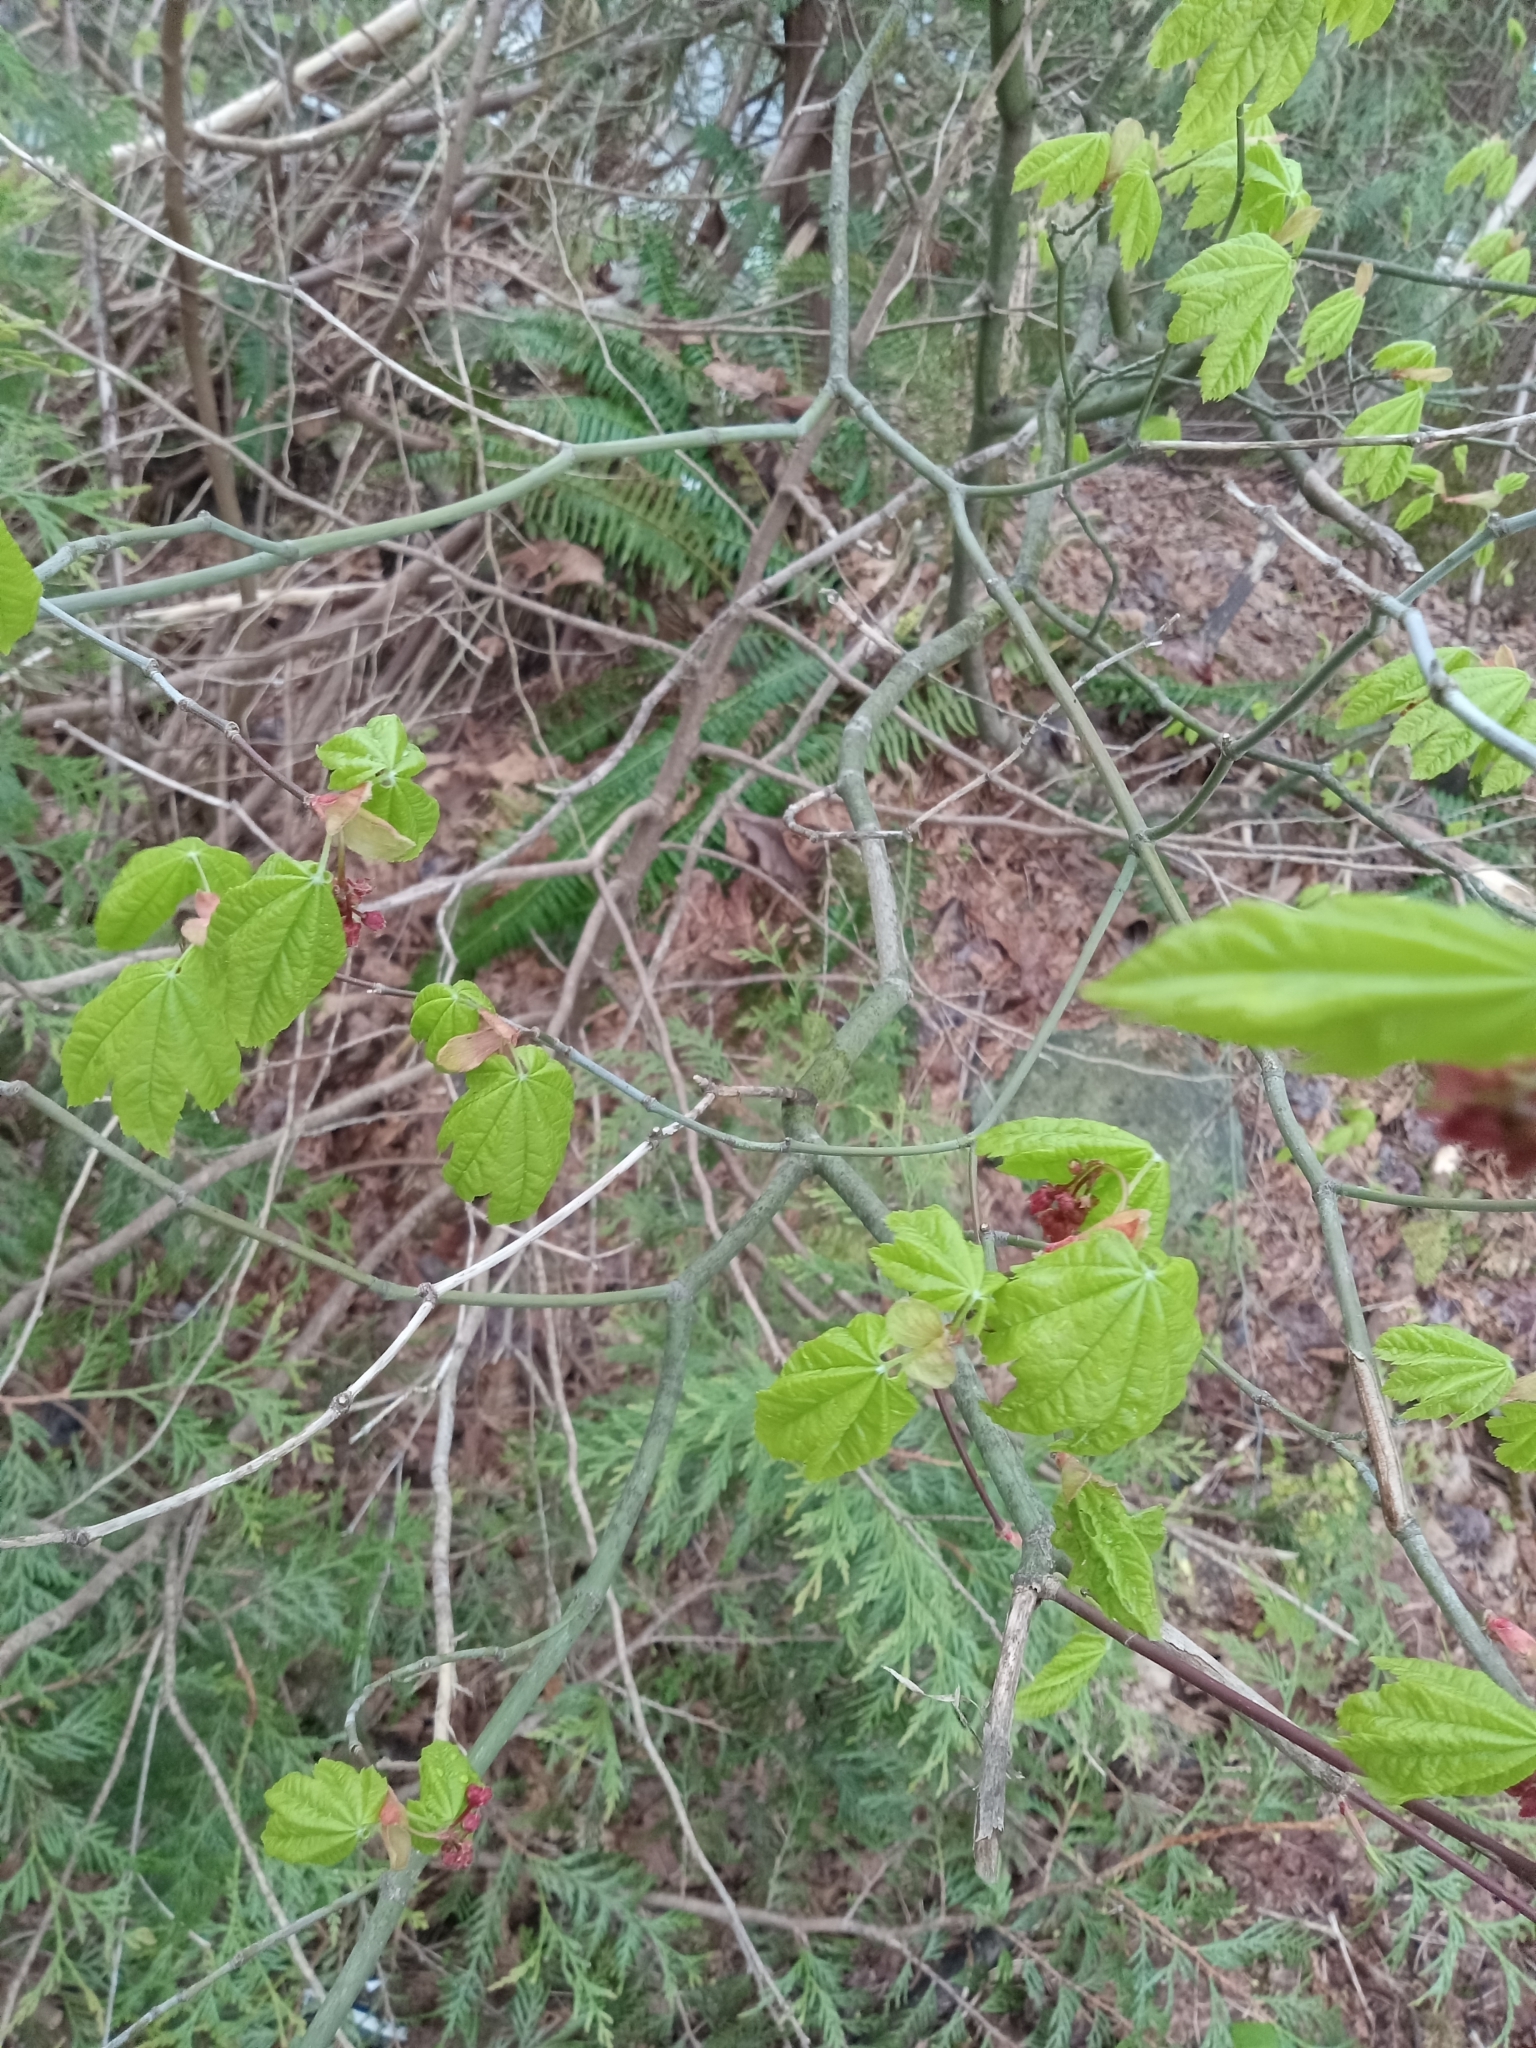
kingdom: Plantae
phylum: Tracheophyta
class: Magnoliopsida
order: Sapindales
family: Sapindaceae
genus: Acer
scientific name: Acer circinatum
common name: Vine maple
